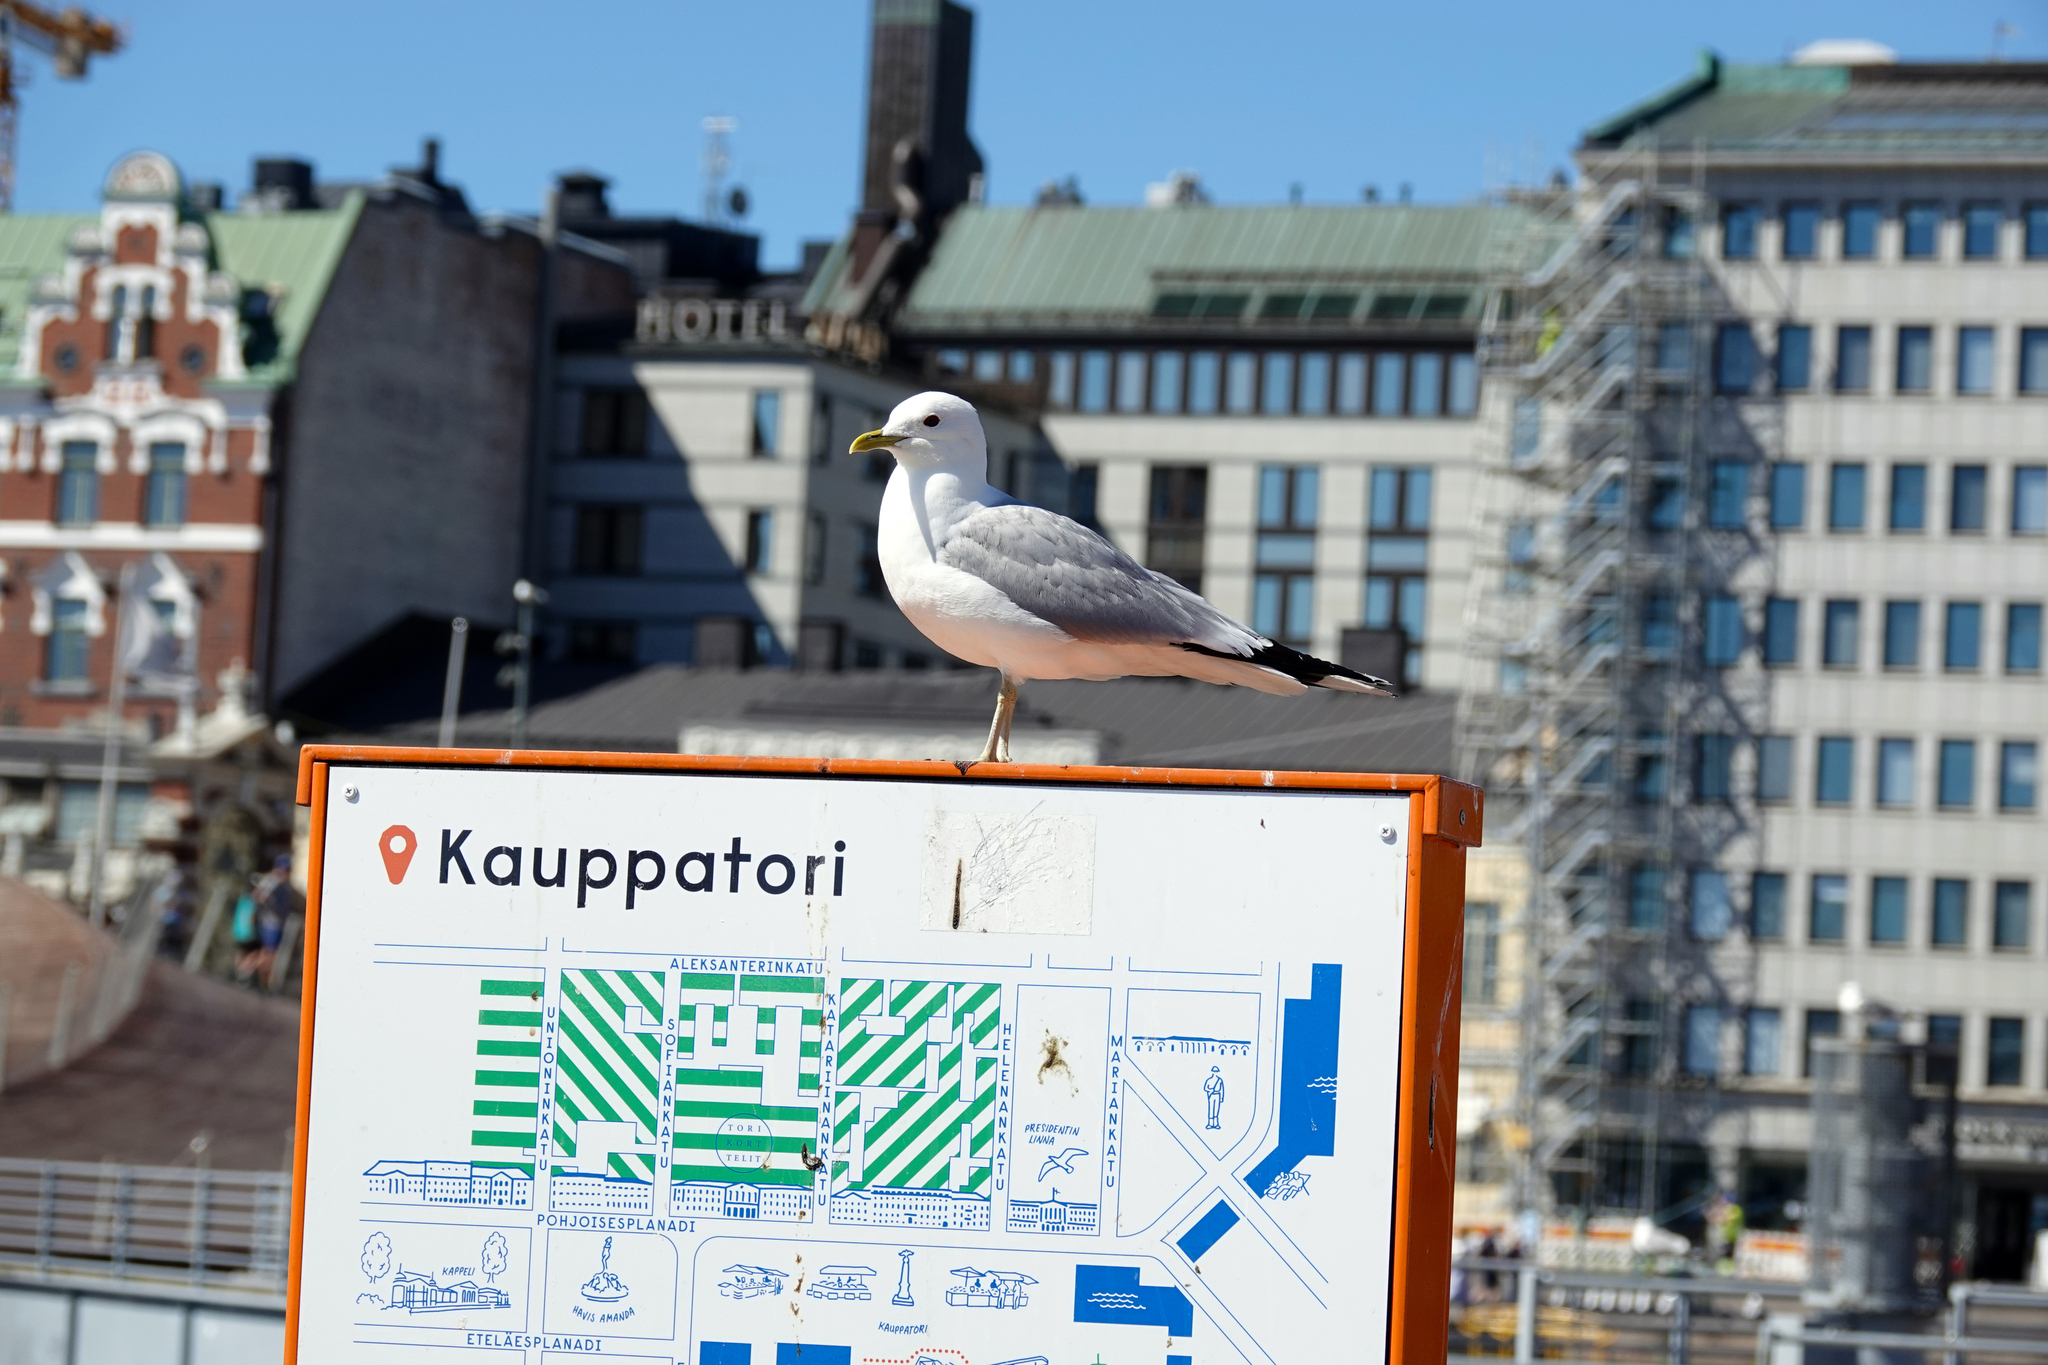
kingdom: Animalia
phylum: Chordata
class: Aves
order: Charadriiformes
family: Laridae
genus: Larus
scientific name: Larus canus
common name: Mew gull
